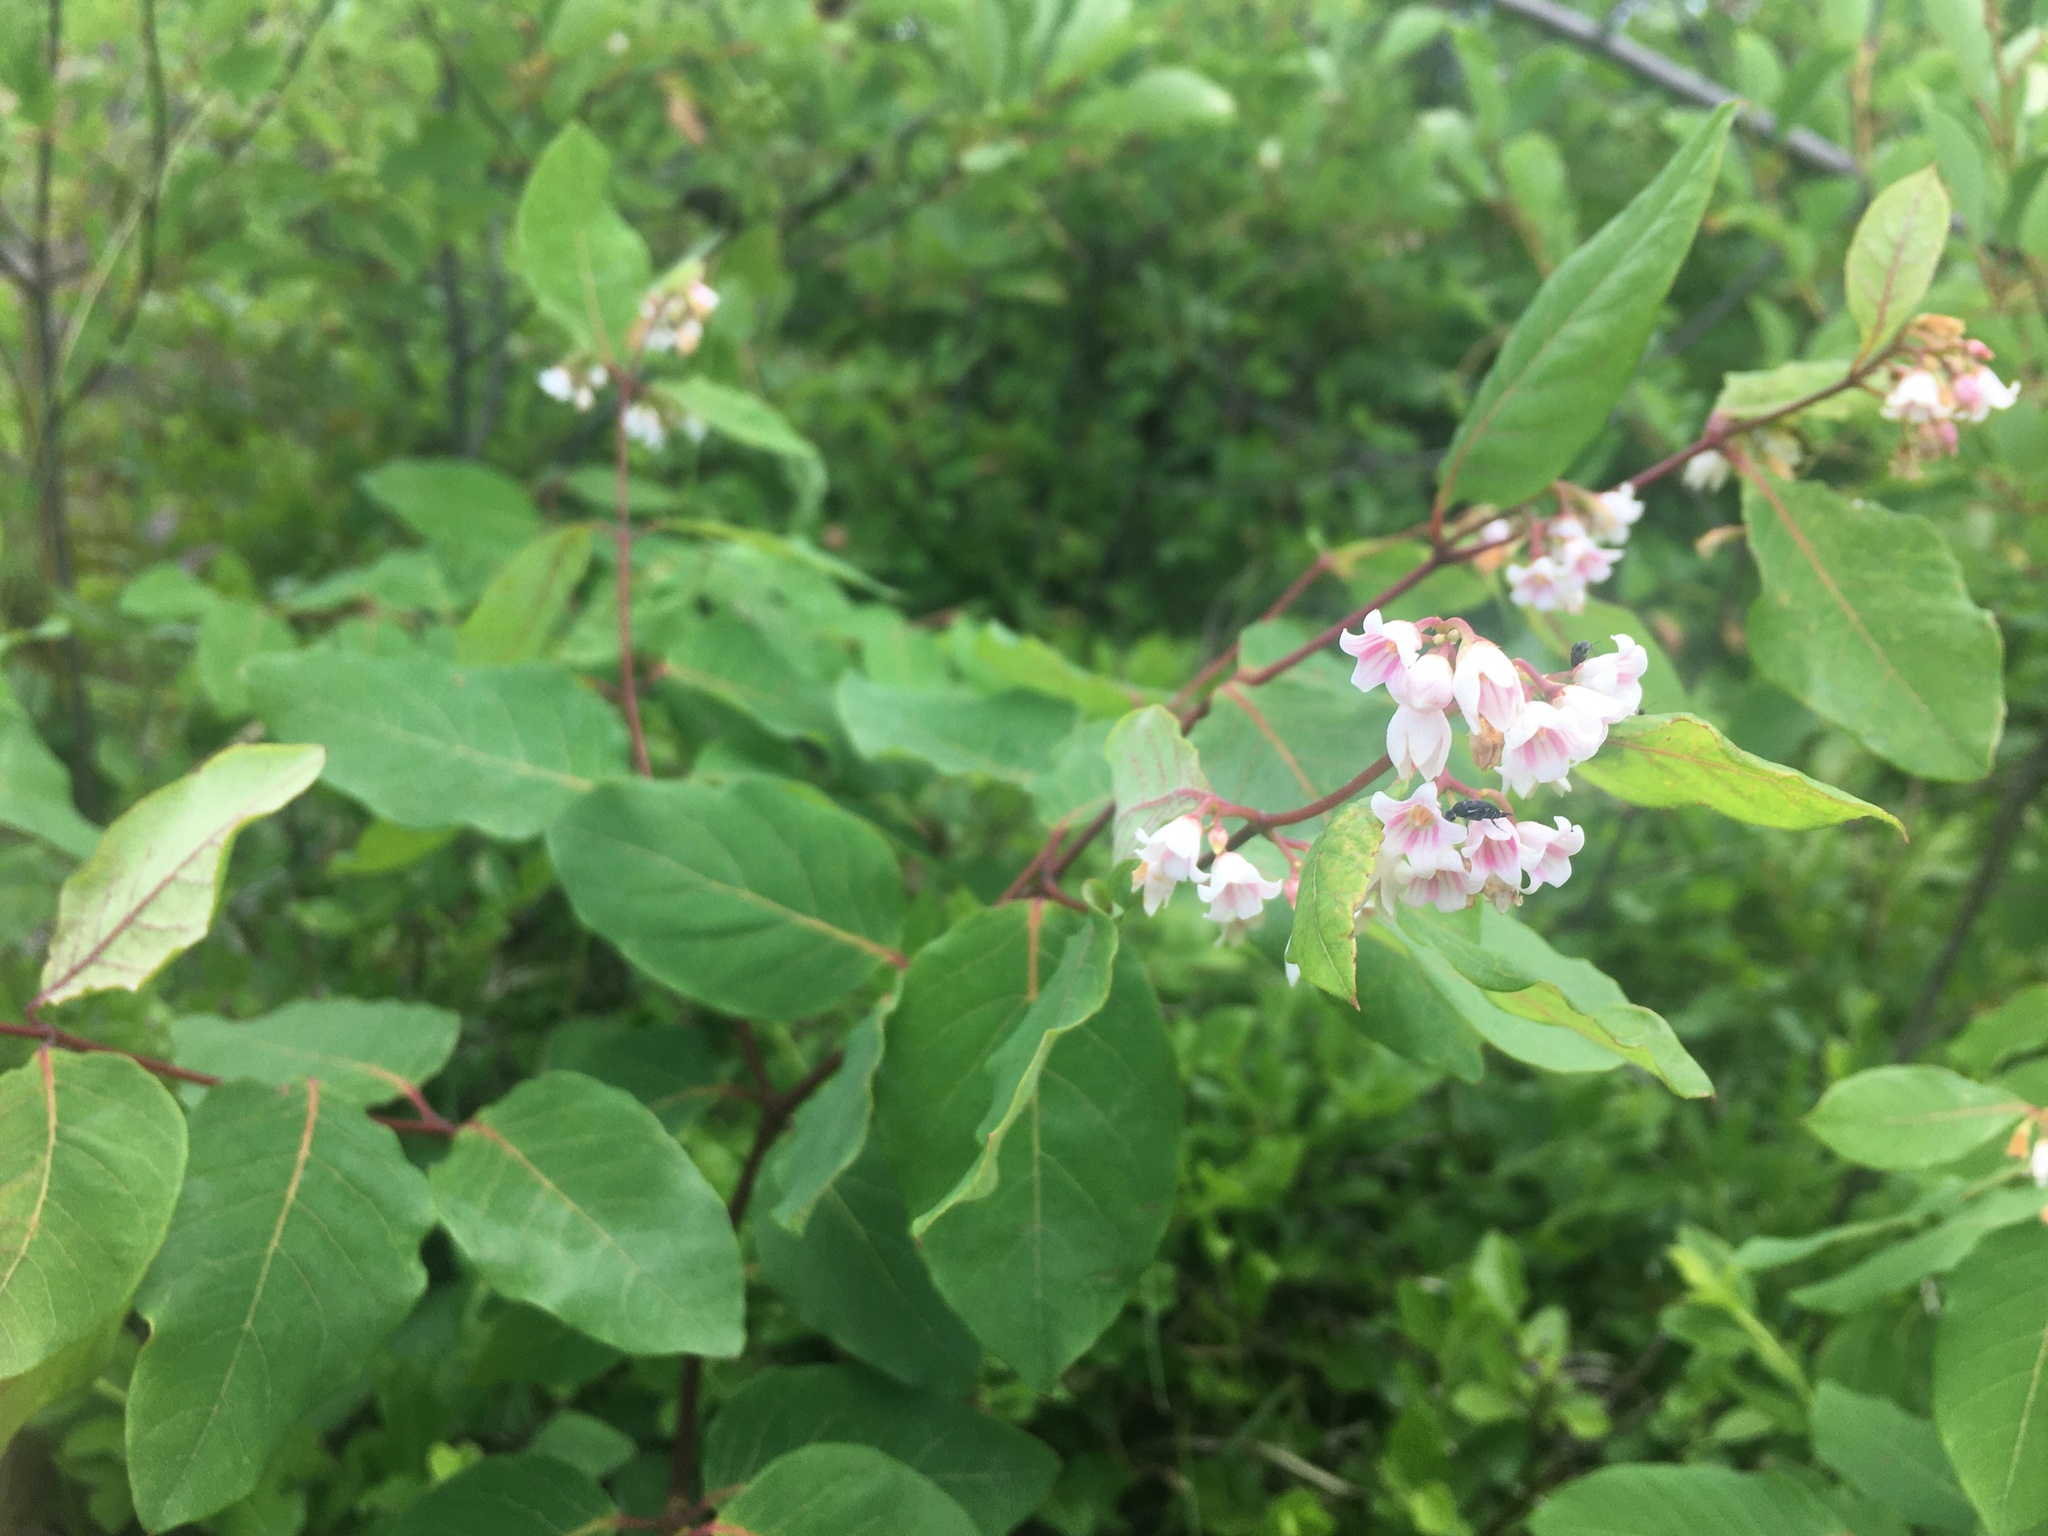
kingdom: Plantae
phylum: Tracheophyta
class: Magnoliopsida
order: Gentianales
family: Apocynaceae
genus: Apocynum
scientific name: Apocynum androsaemifolium
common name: Spreading dogbane
